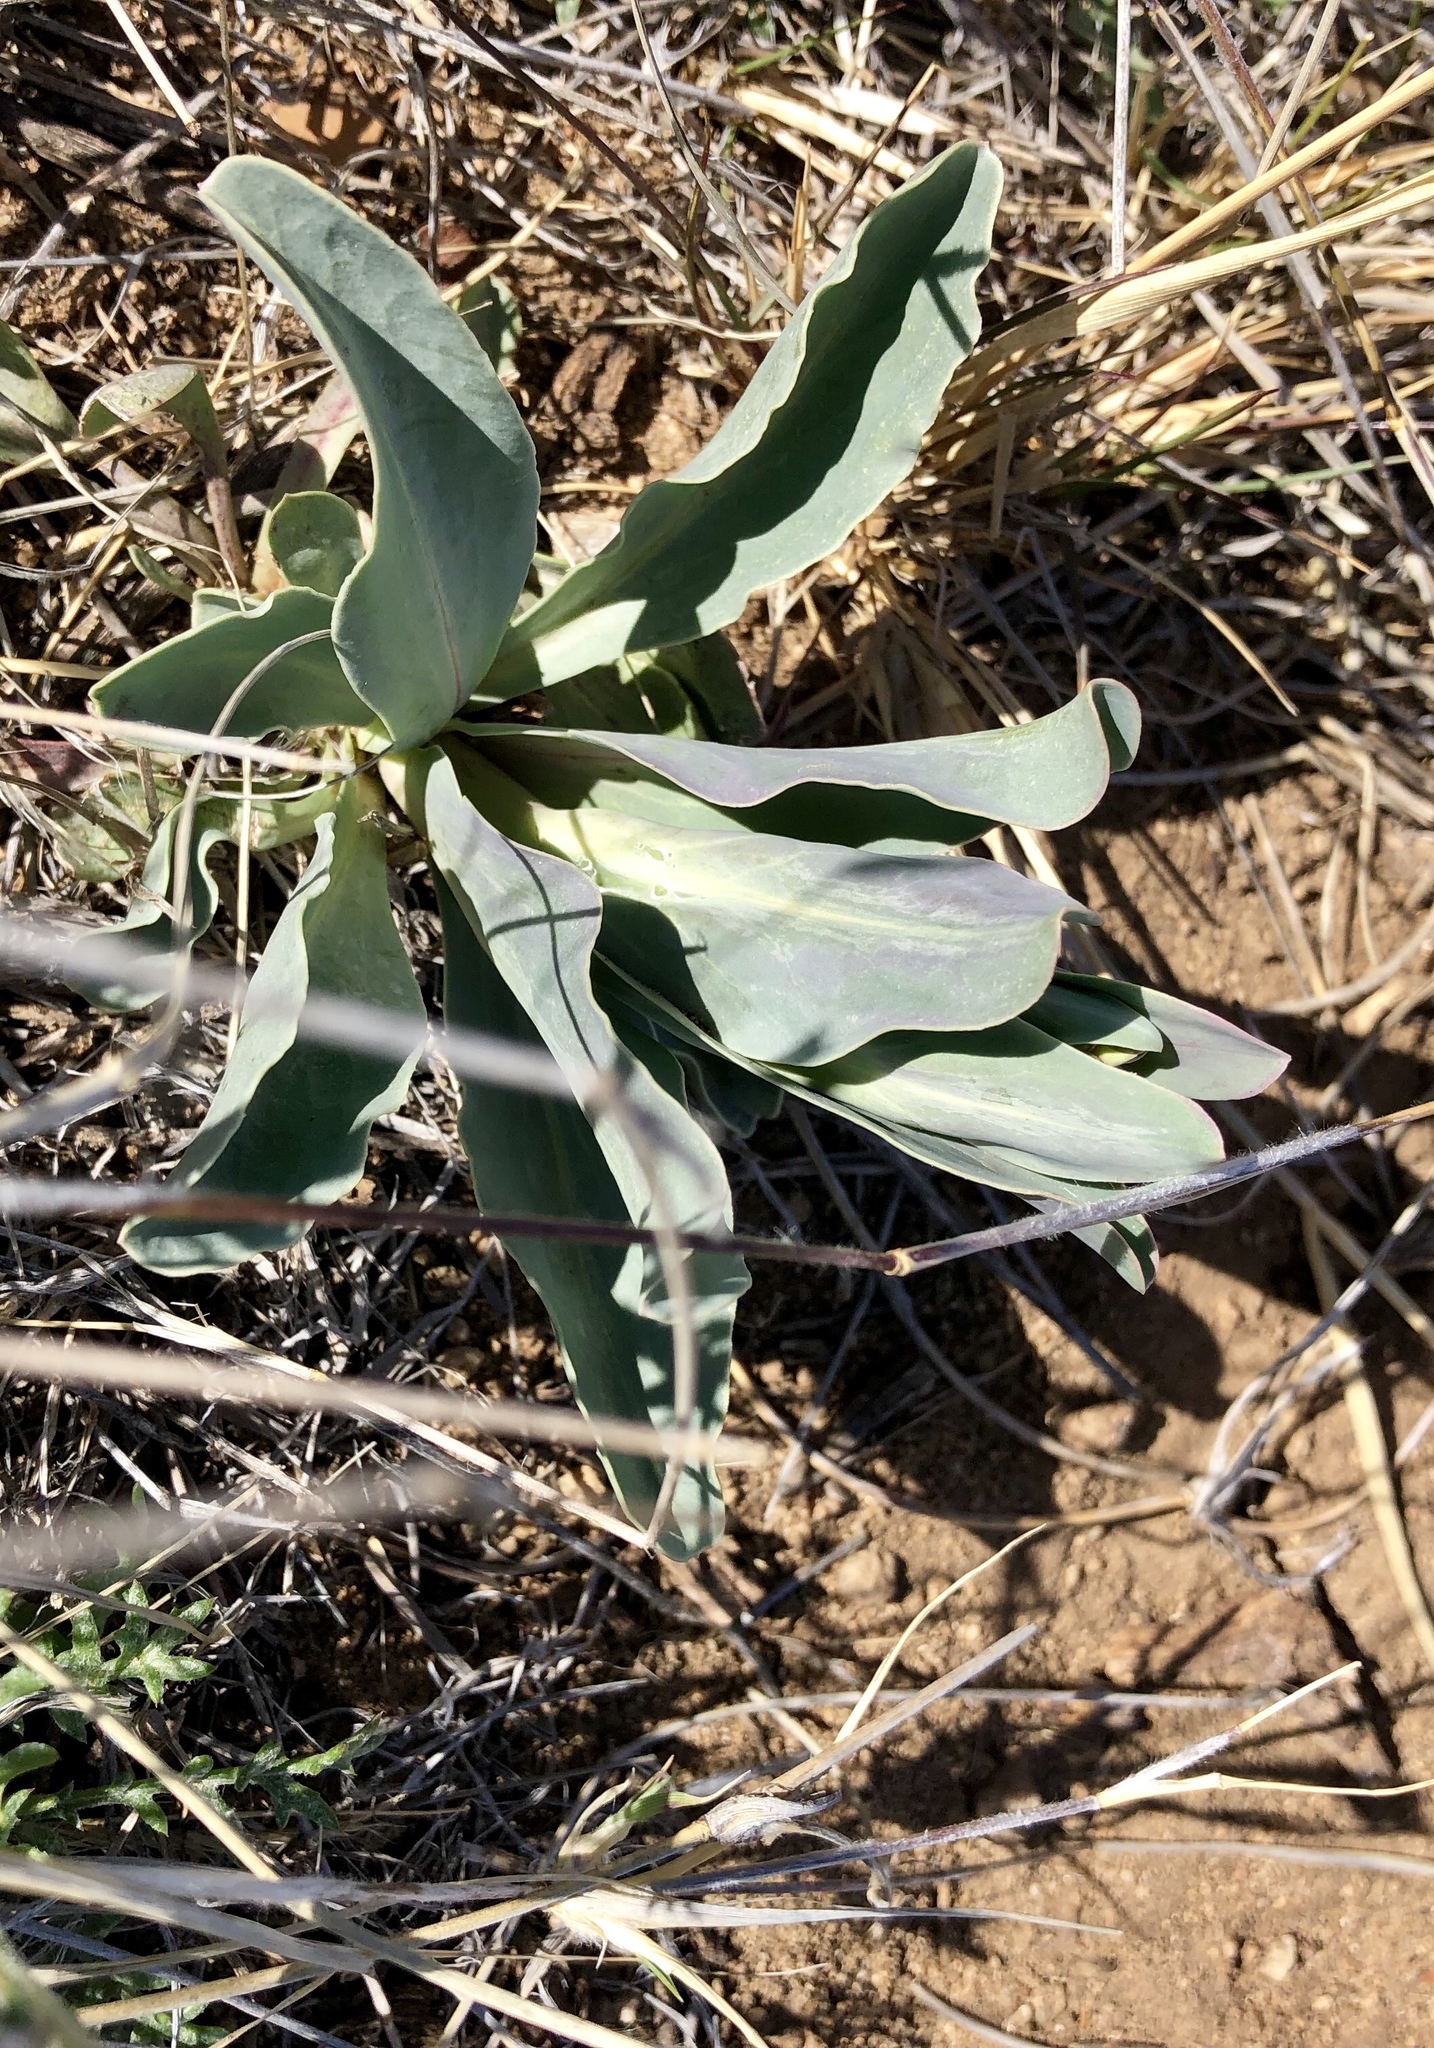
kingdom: Plantae
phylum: Tracheophyta
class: Magnoliopsida
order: Lamiales
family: Plantaginaceae
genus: Penstemon
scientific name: Penstemon fendleri
